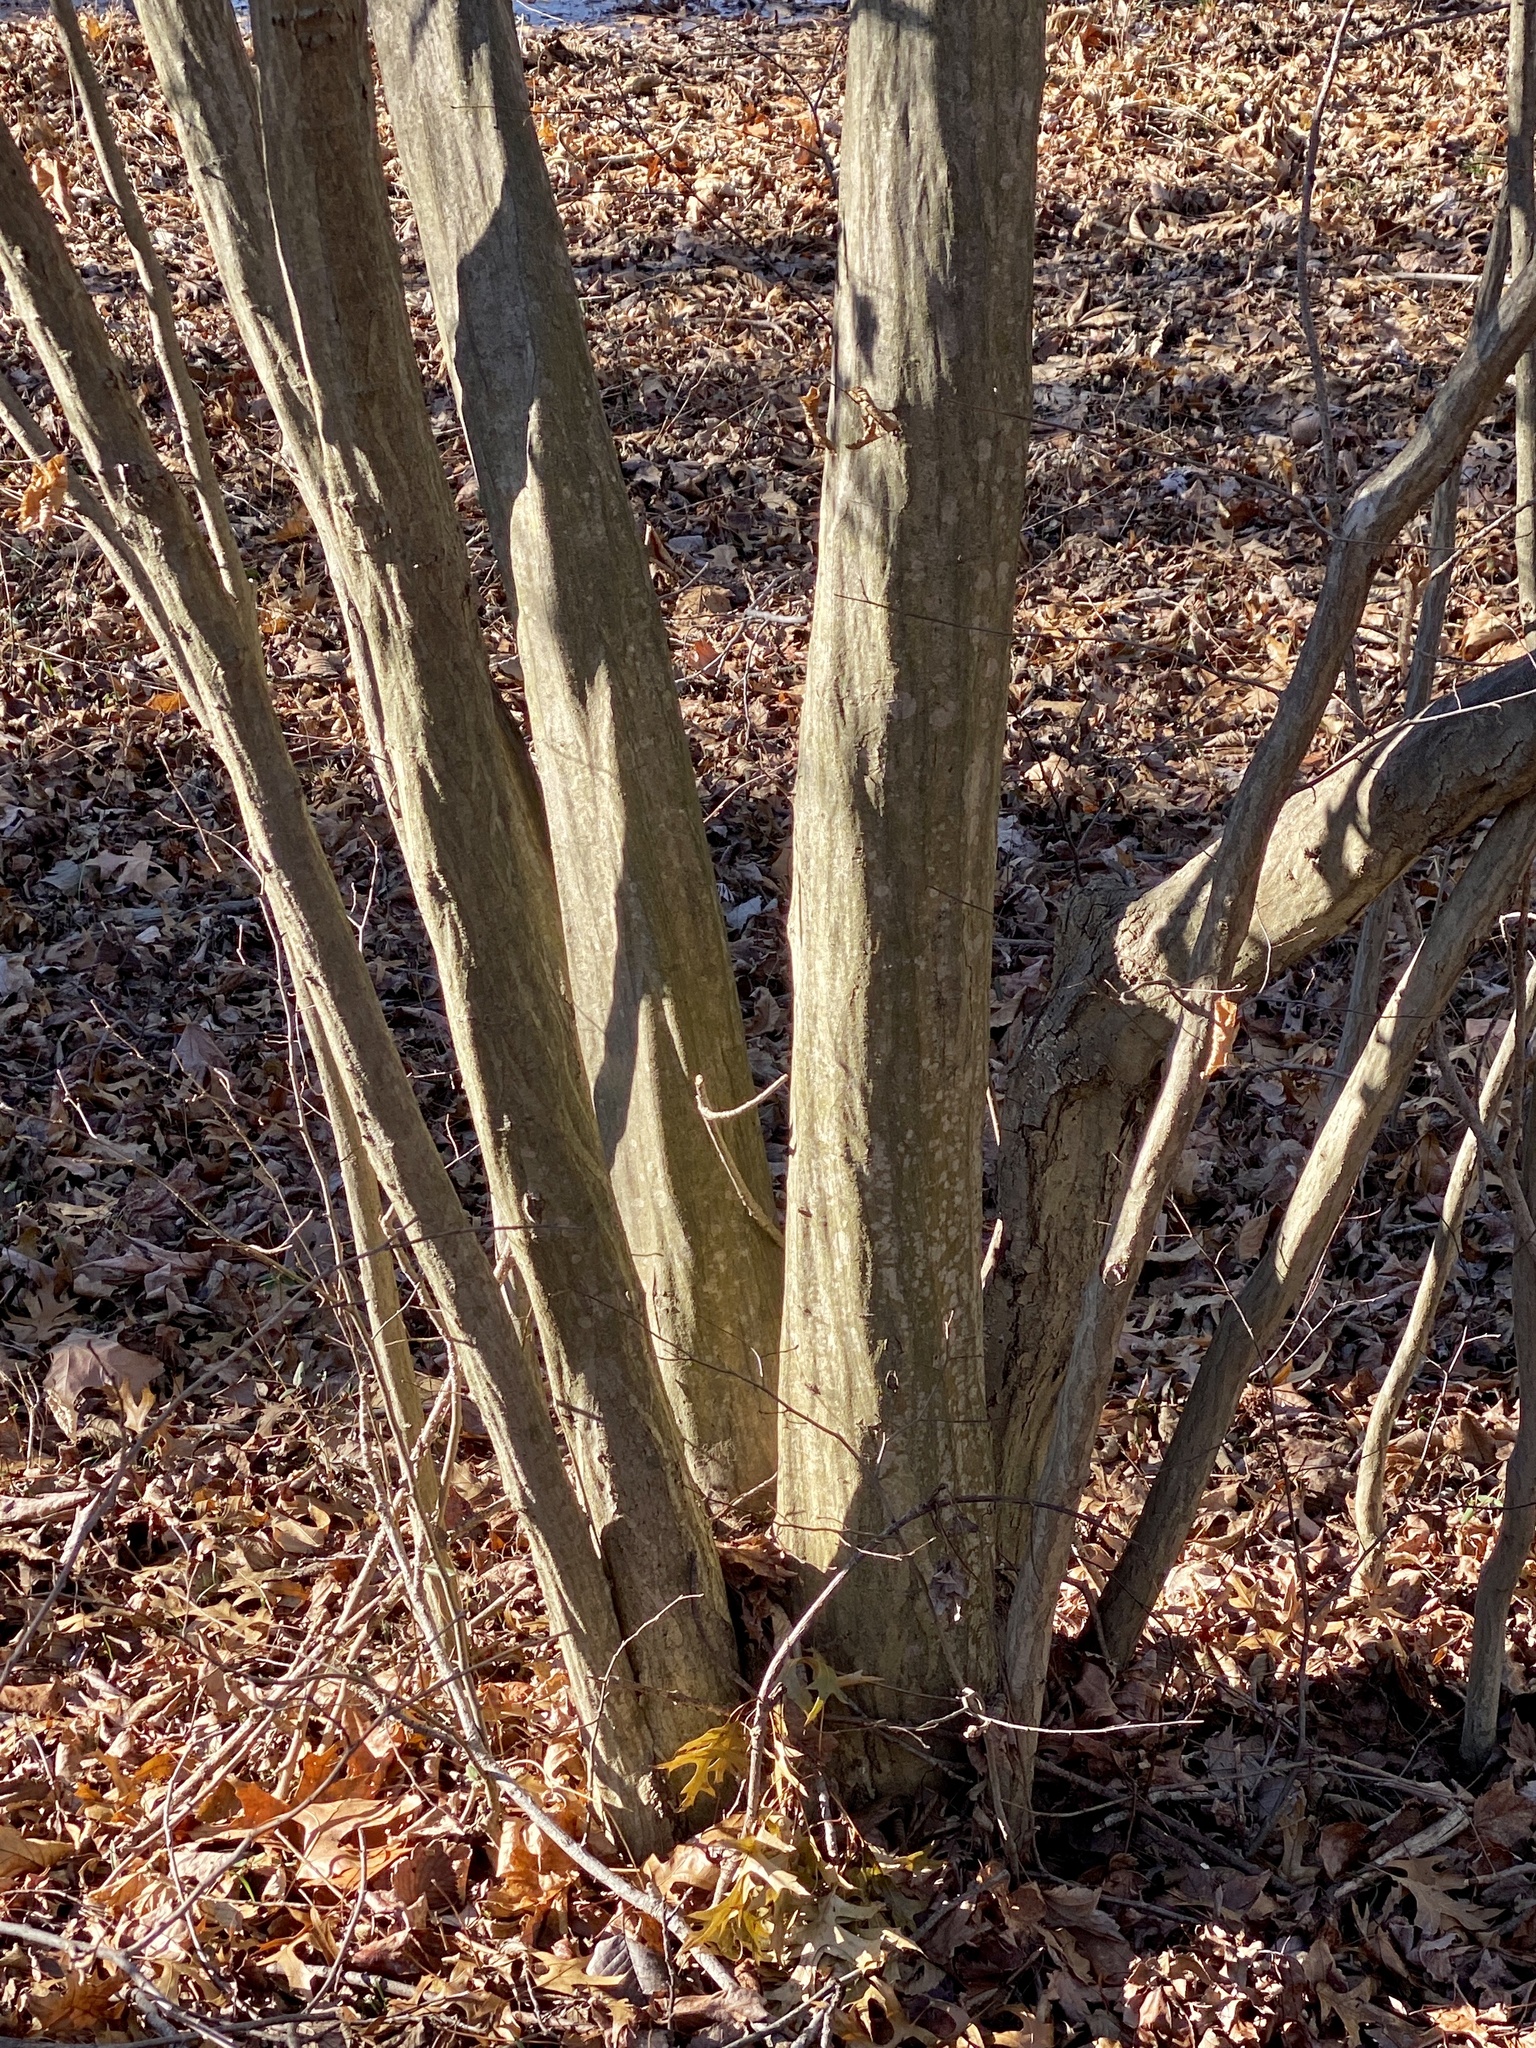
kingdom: Plantae
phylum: Tracheophyta
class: Magnoliopsida
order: Fagales
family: Betulaceae
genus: Carpinus
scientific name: Carpinus caroliniana
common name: American hornbeam
